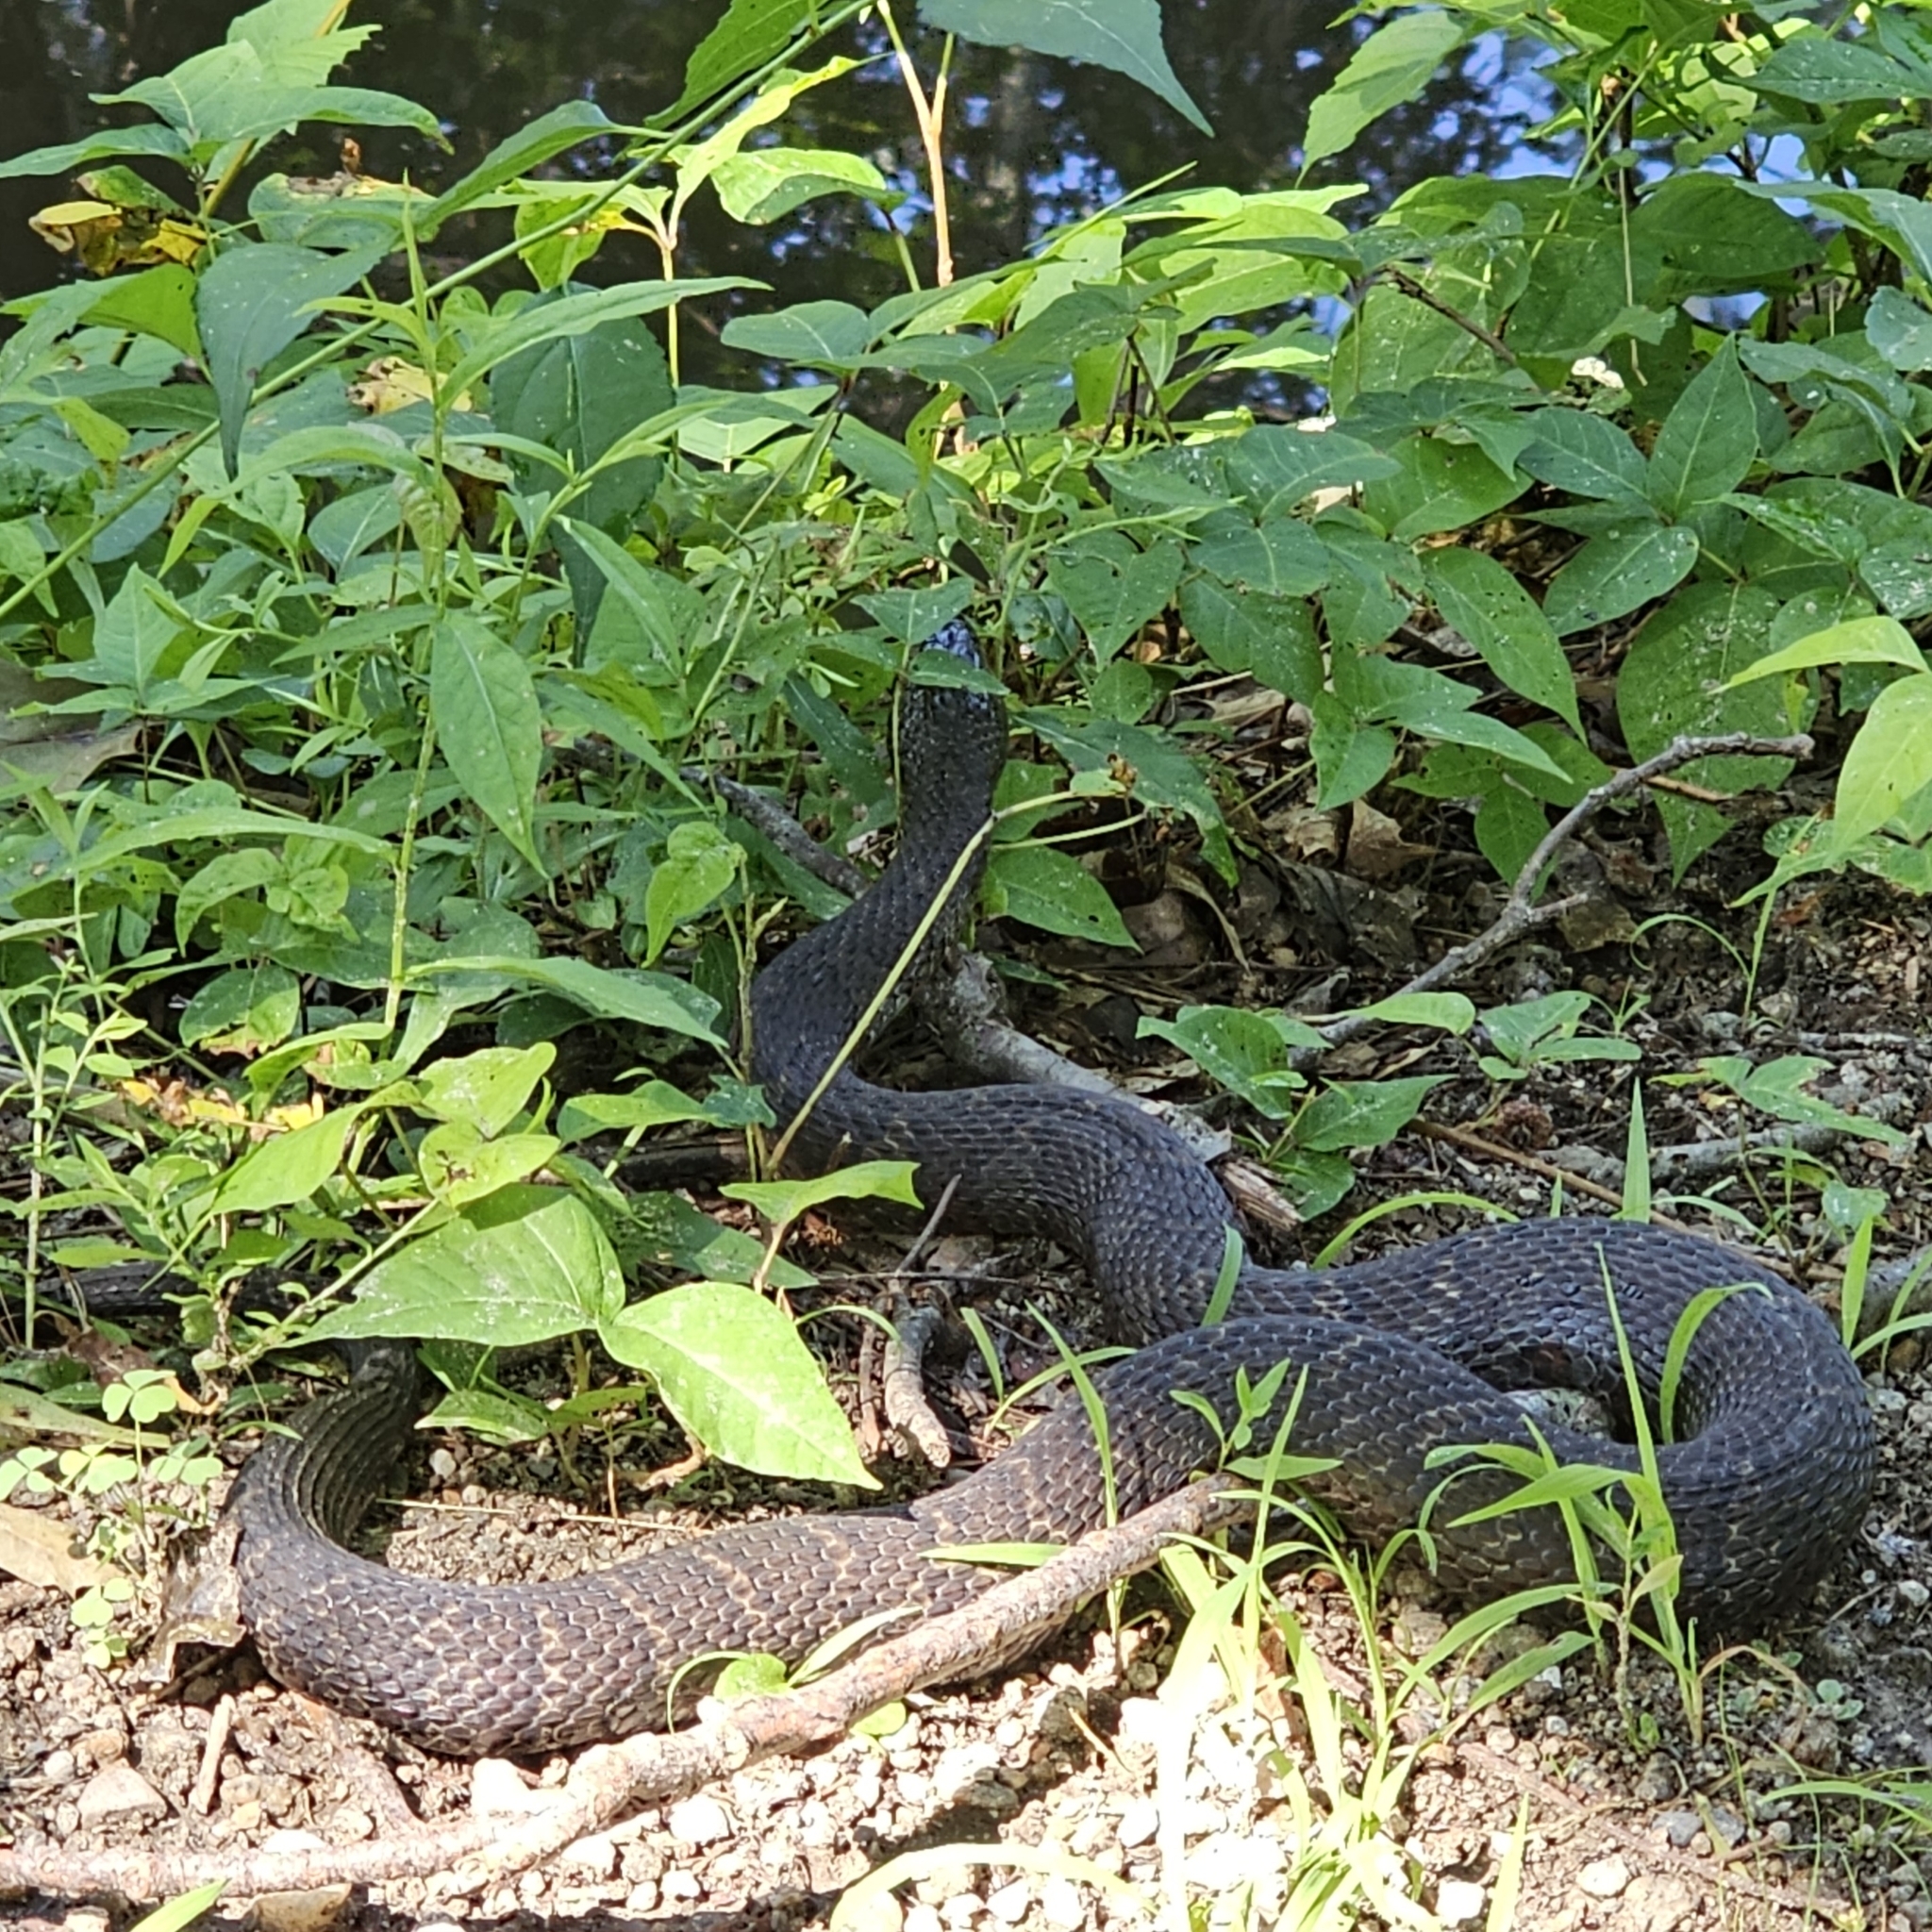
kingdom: Animalia
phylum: Chordata
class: Squamata
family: Colubridae
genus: Nerodia
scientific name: Nerodia sipedon
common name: Northern water snake
